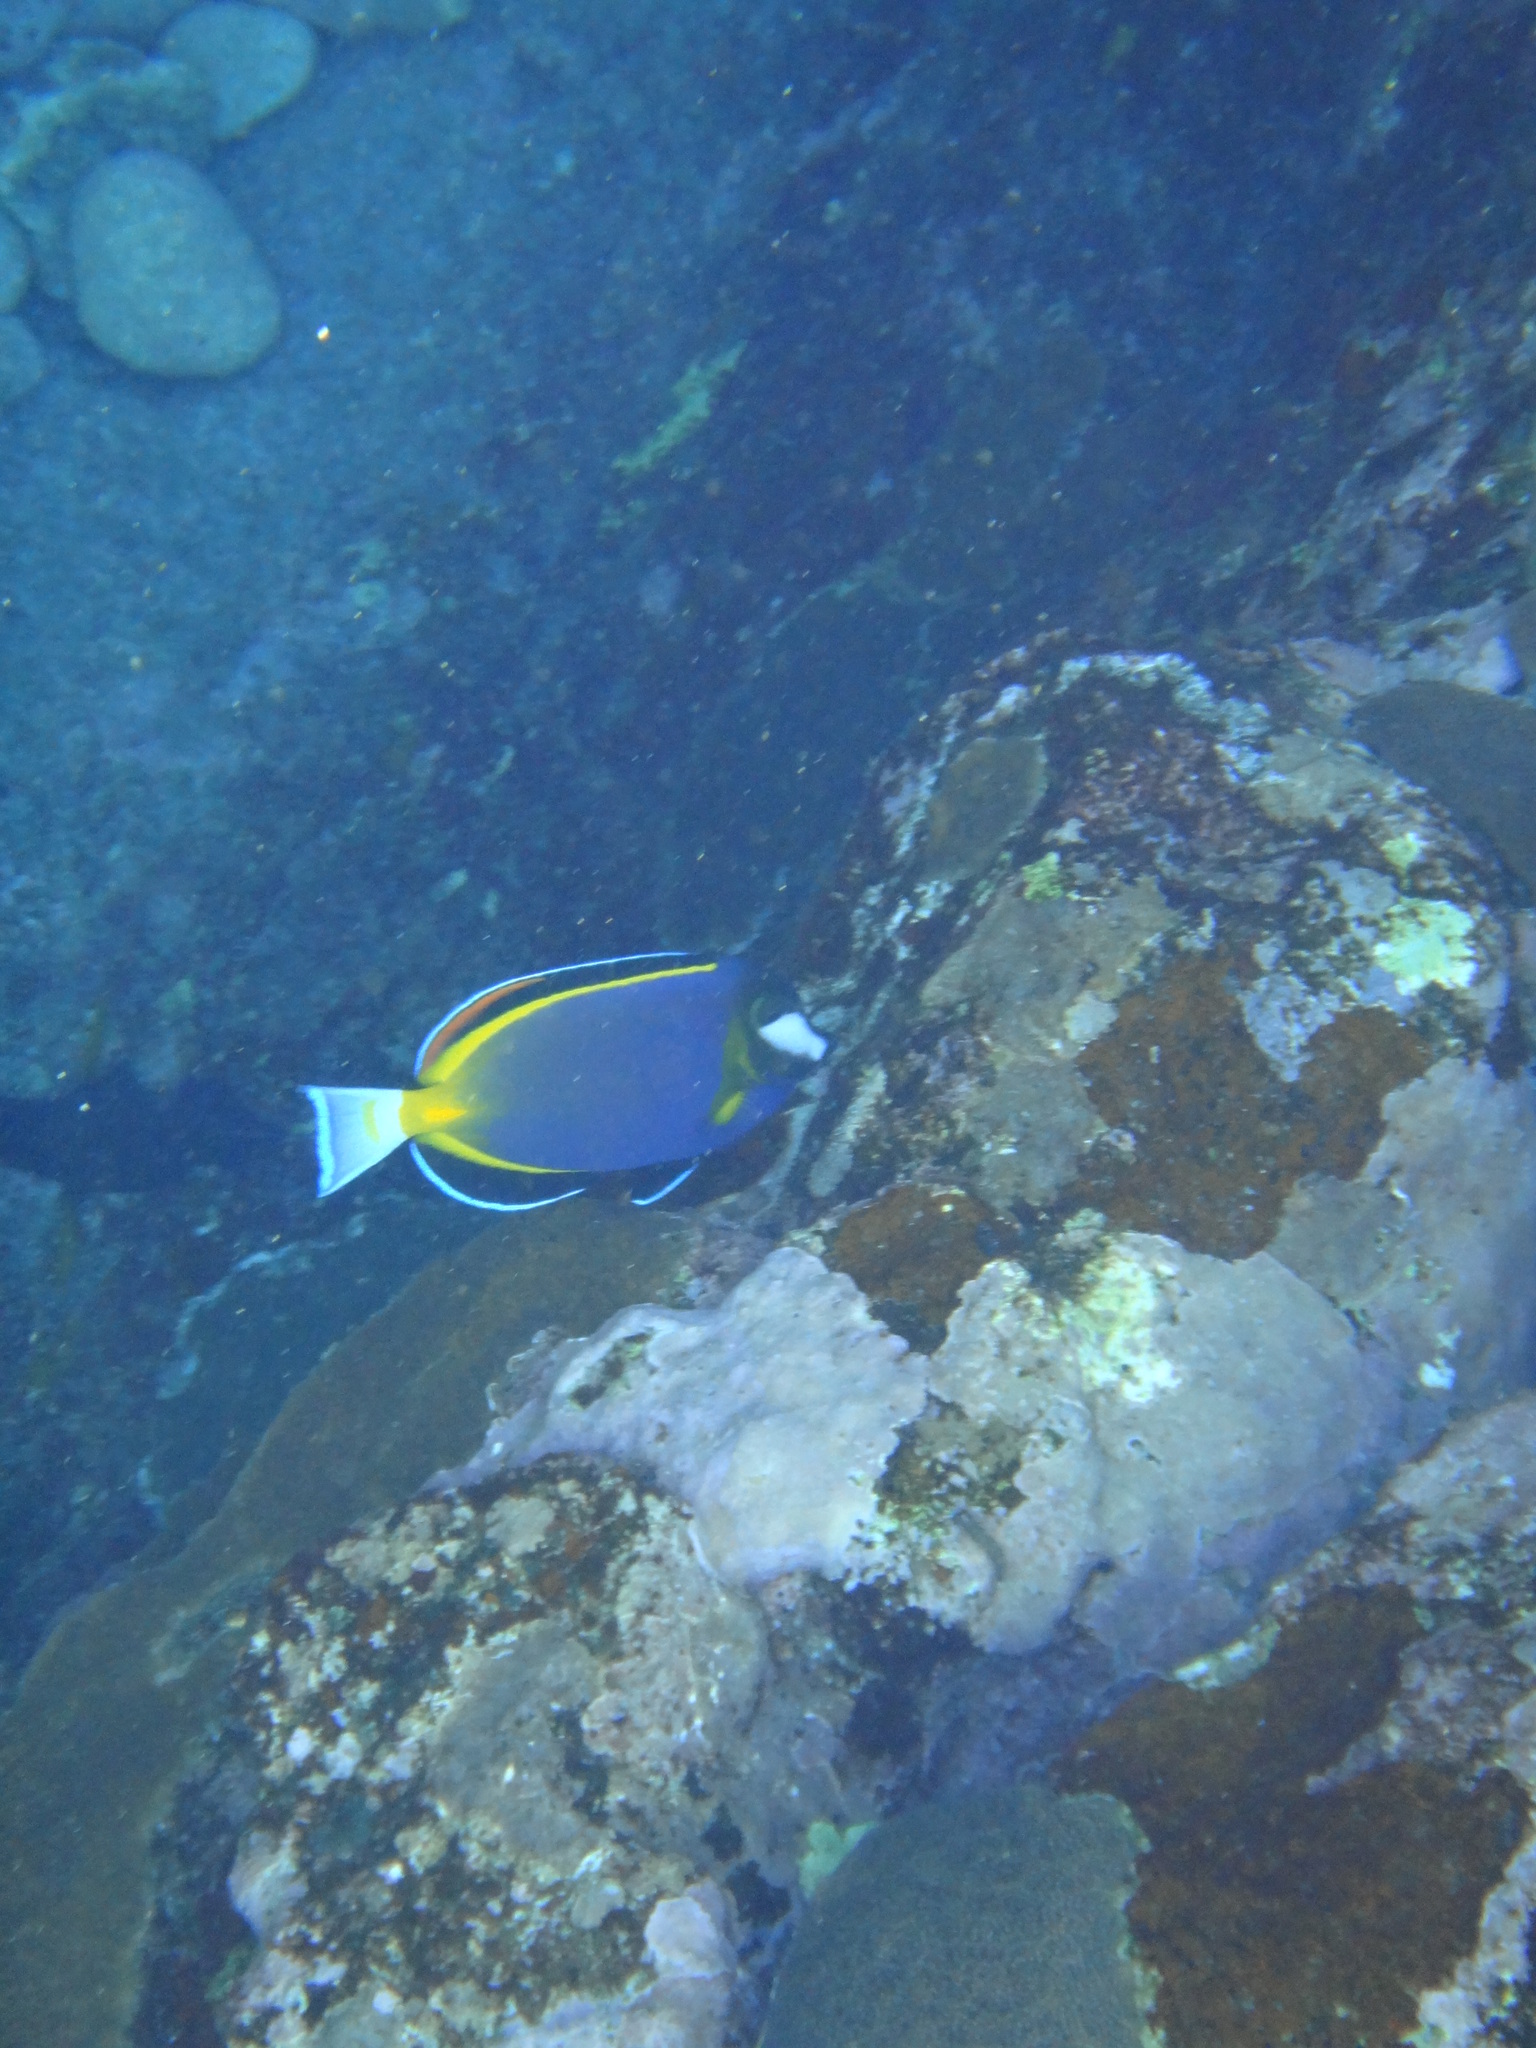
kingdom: Animalia
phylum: Chordata
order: Perciformes
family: Acanthuridae
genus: Acanthurus
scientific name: Acanthurus japonicus
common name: Japanese surgeonfish
